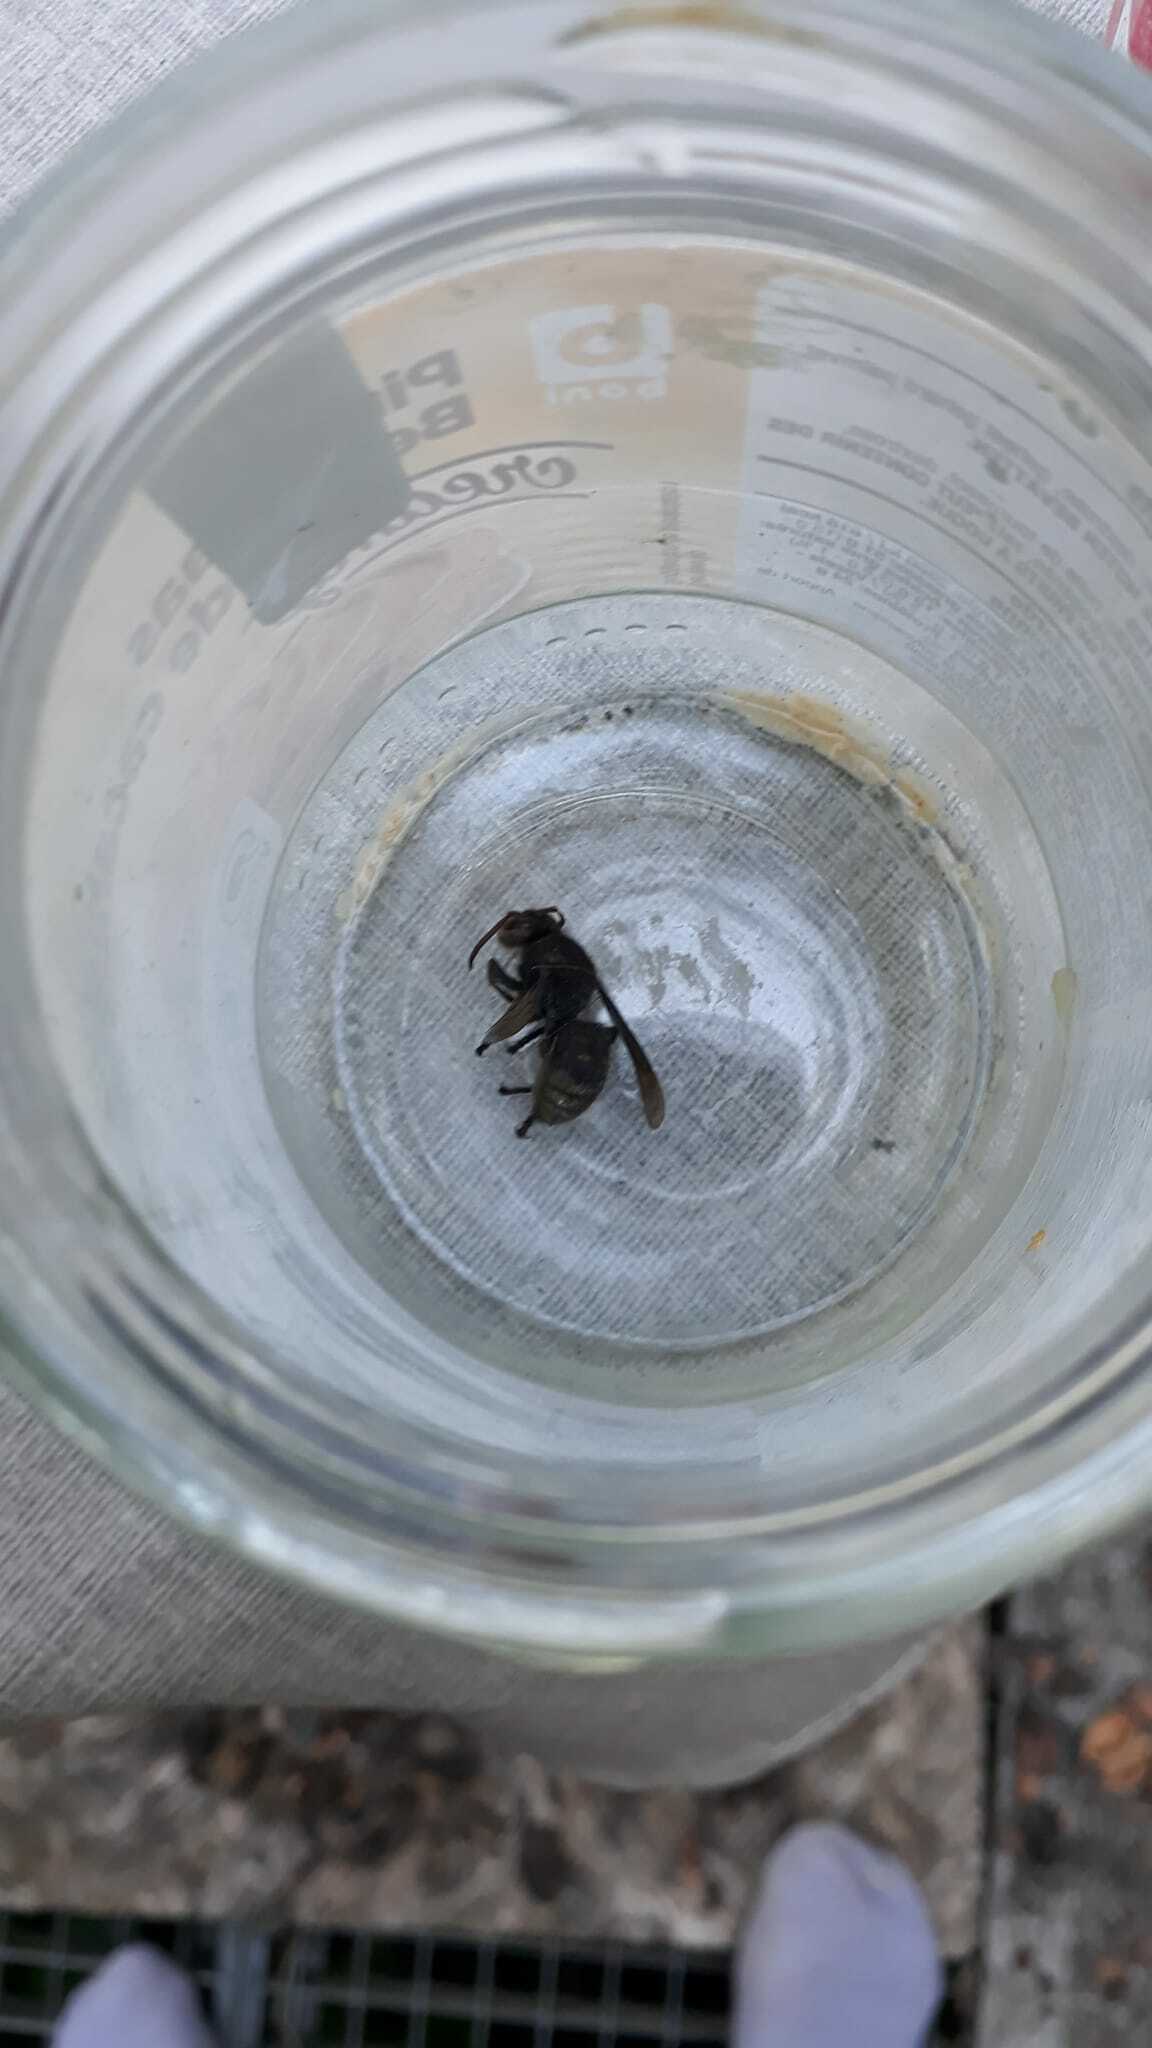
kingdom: Animalia
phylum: Arthropoda
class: Insecta
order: Hymenoptera
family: Vespidae
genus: Vespa
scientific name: Vespa crabro
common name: Hornet
